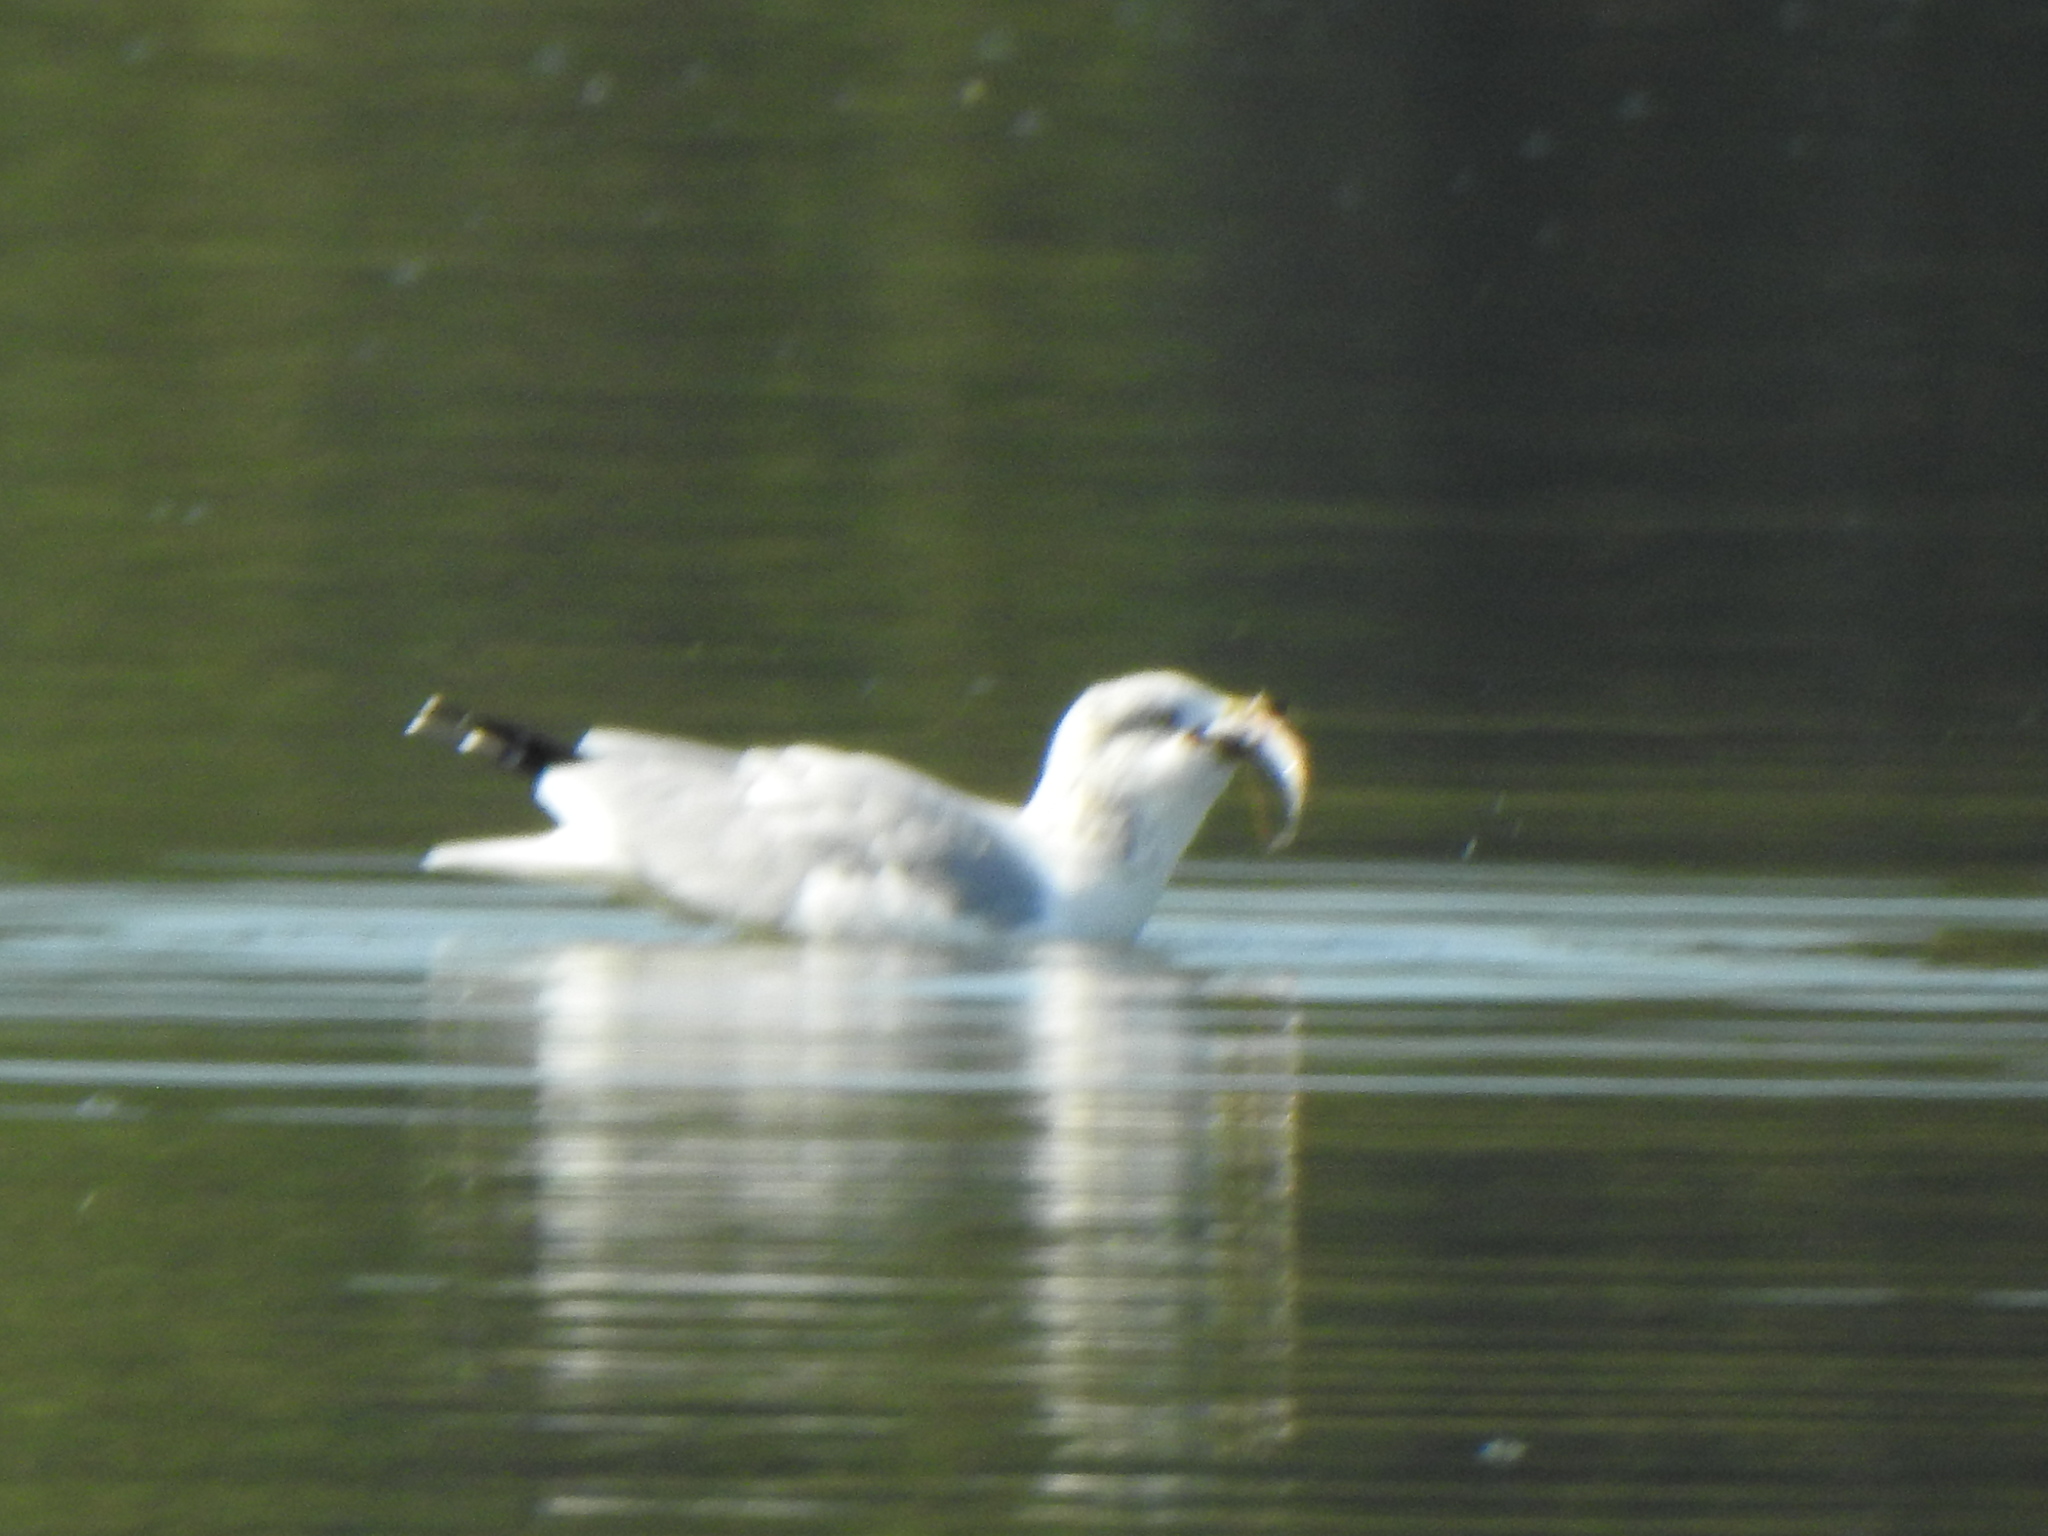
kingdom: Animalia
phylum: Chordata
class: Aves
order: Charadriiformes
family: Laridae
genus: Larus
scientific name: Larus delawarensis
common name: Ring-billed gull
